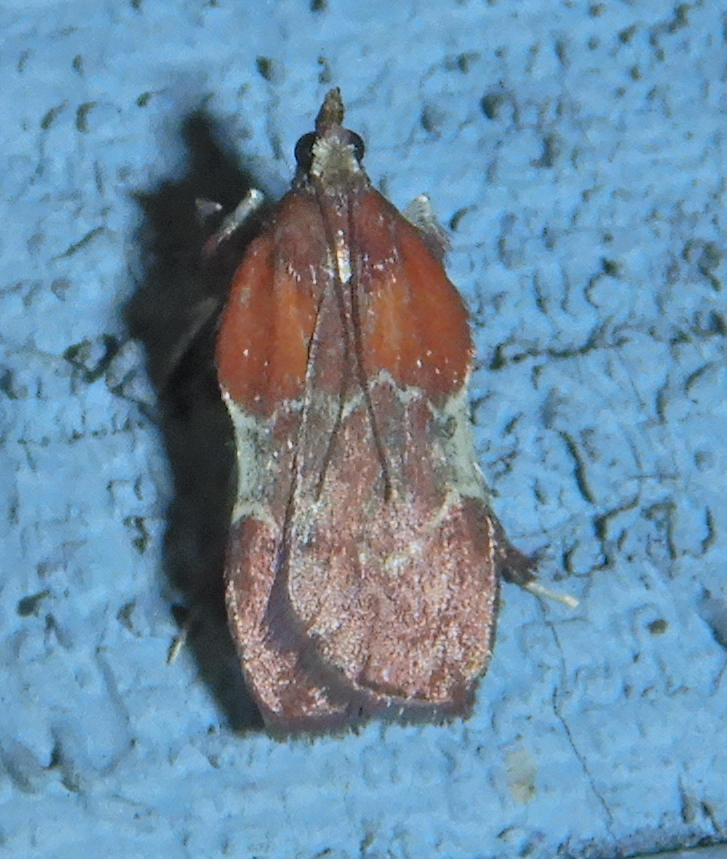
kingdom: Animalia
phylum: Arthropoda
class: Insecta
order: Lepidoptera
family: Pyralidae
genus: Galasa
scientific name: Galasa nigrinodis
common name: Boxwood leaftier moth
